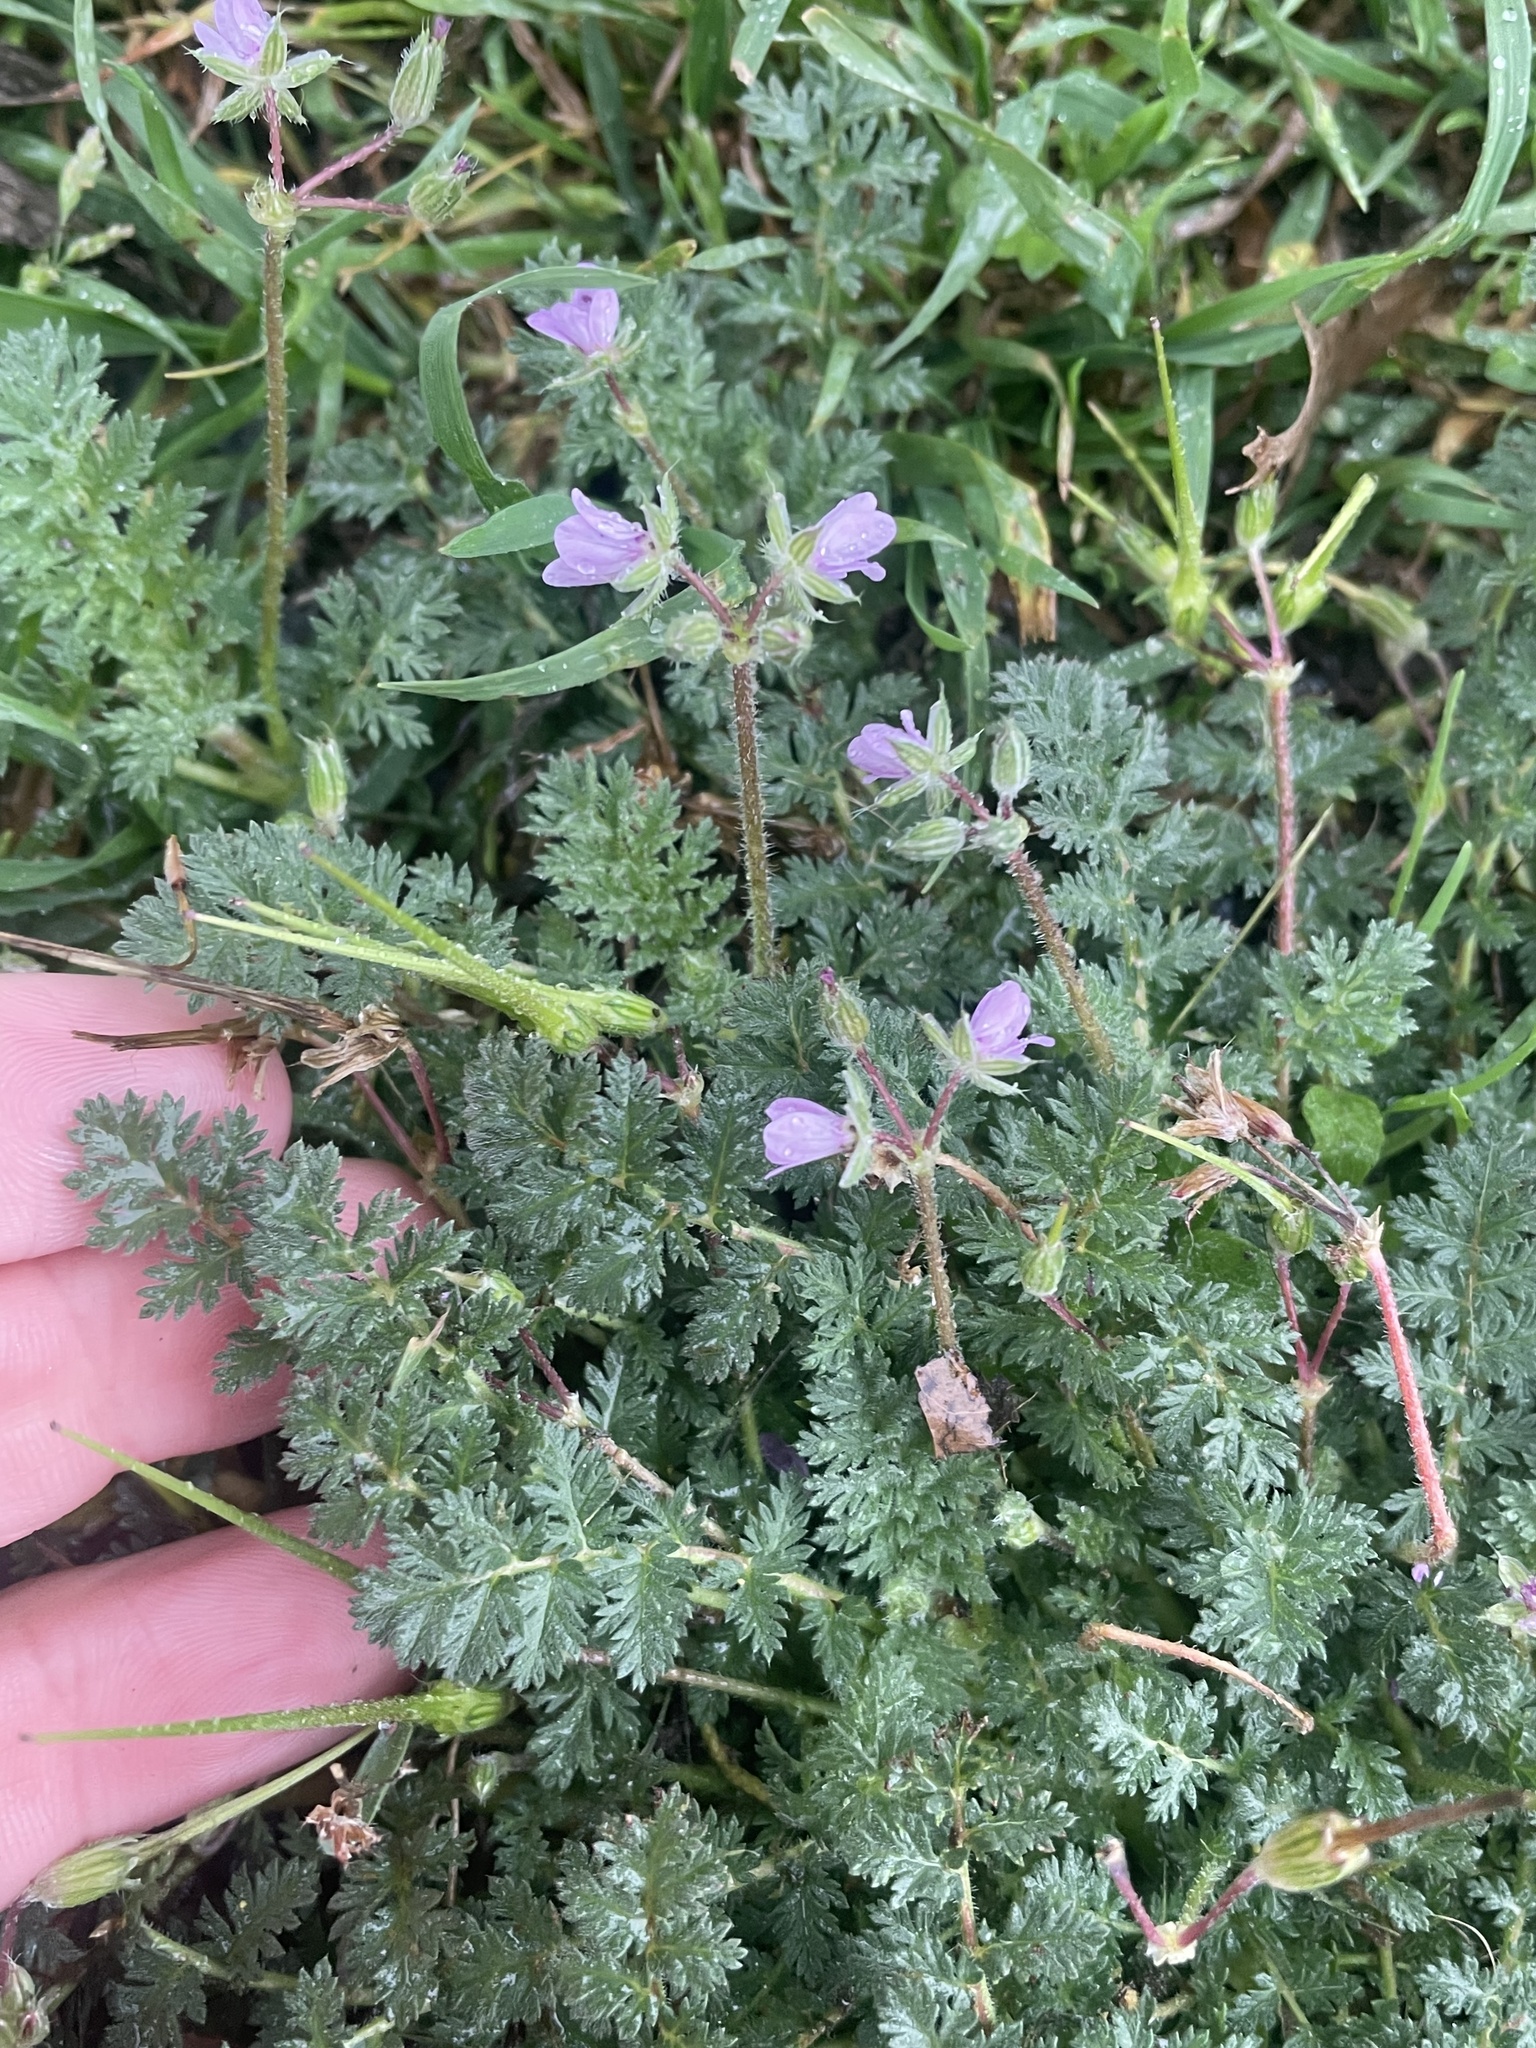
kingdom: Plantae
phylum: Tracheophyta
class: Magnoliopsida
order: Geraniales
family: Geraniaceae
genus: Erodium
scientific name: Erodium cicutarium
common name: Common stork's-bill
